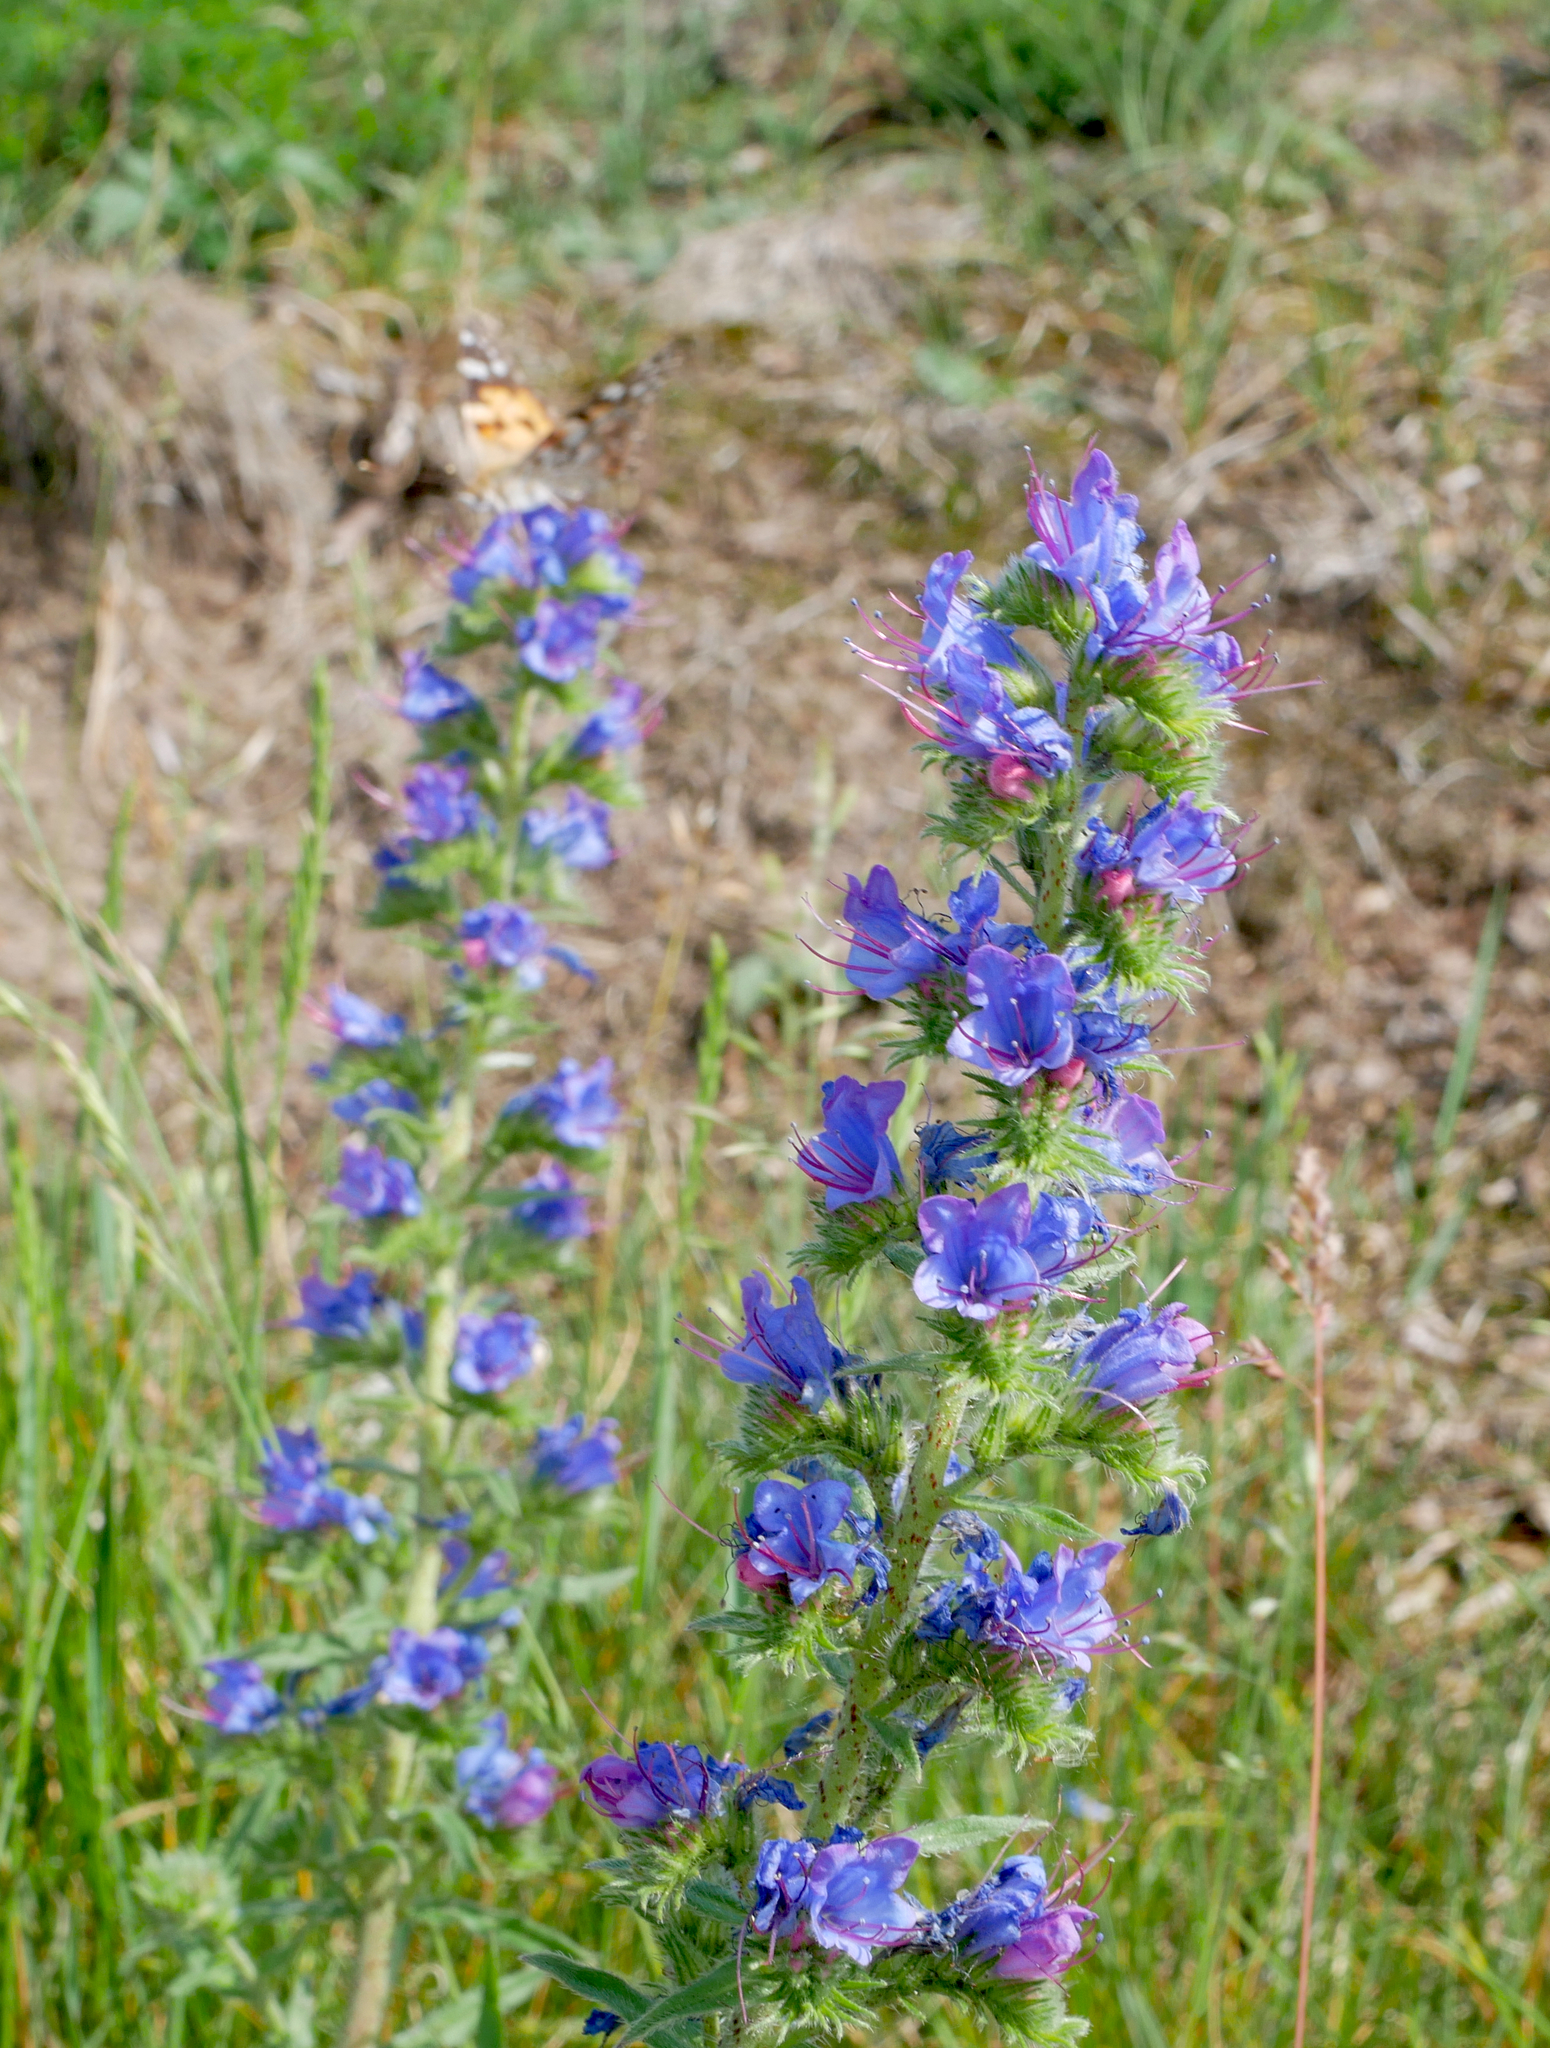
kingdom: Plantae
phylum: Tracheophyta
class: Magnoliopsida
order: Boraginales
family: Boraginaceae
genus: Echium
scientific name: Echium vulgare
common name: Common viper's bugloss
